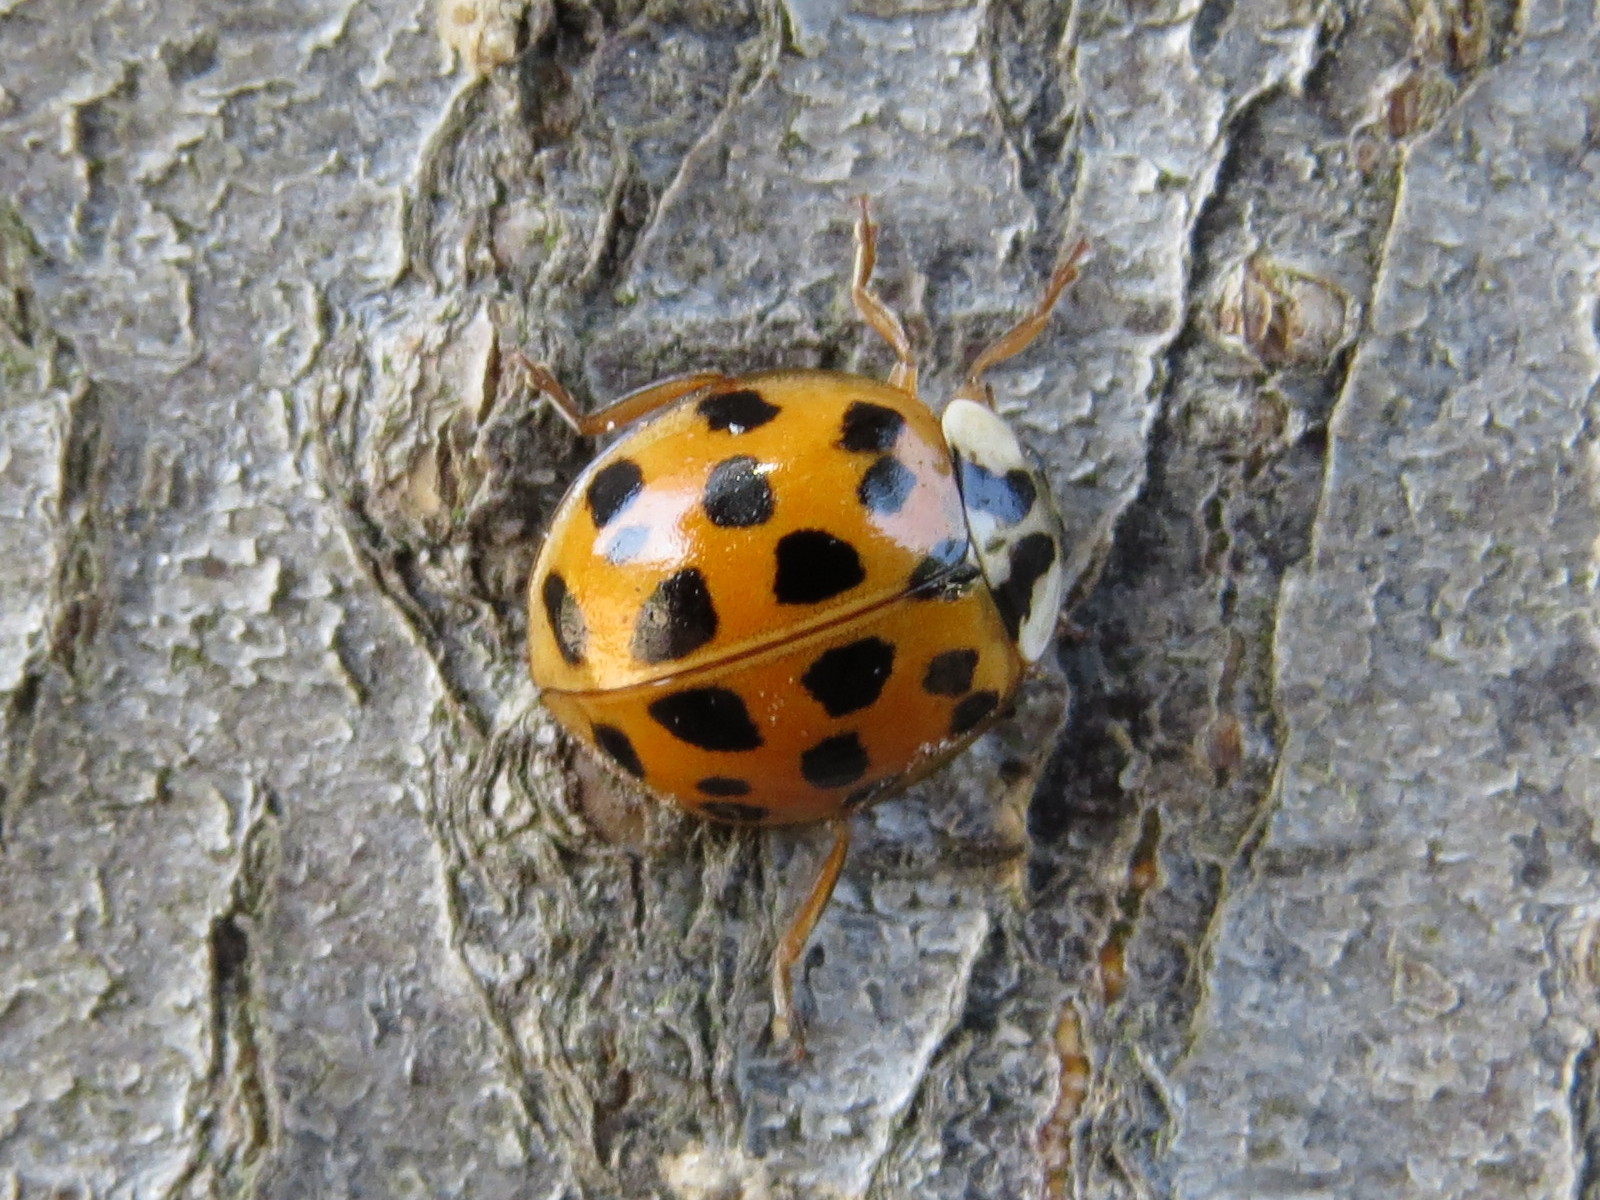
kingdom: Animalia
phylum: Arthropoda
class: Insecta
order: Coleoptera
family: Coccinellidae
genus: Harmonia
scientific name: Harmonia axyridis
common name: Harlequin ladybird
